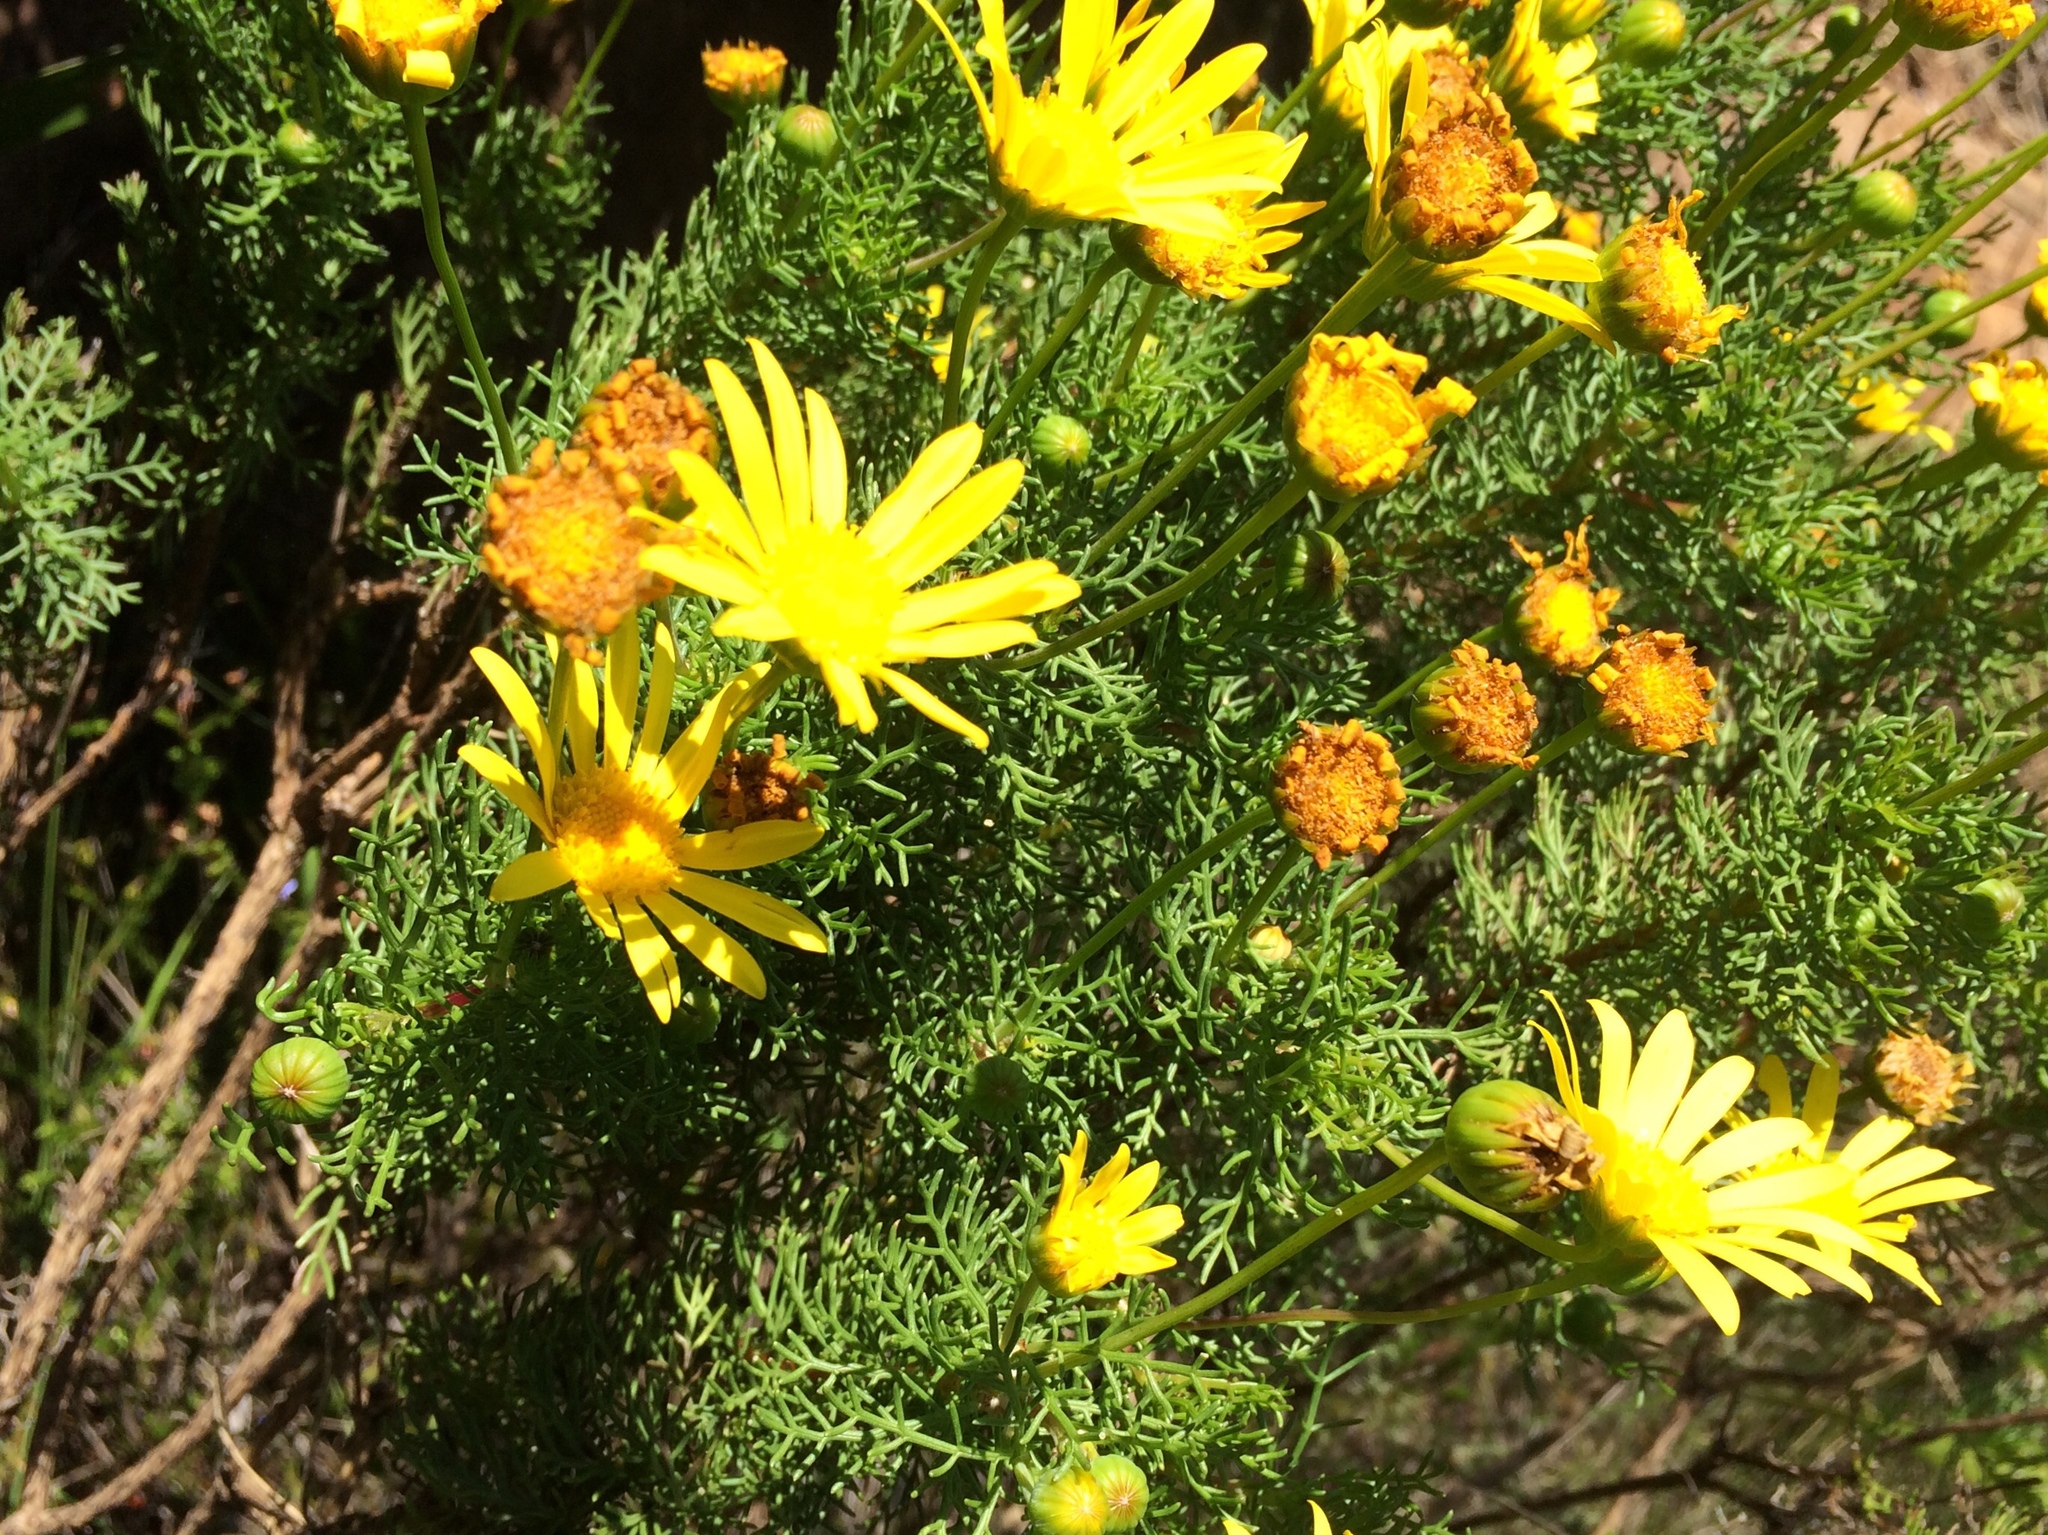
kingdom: Plantae
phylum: Tracheophyta
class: Magnoliopsida
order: Asterales
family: Asteraceae
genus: Euryops
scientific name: Euryops abrotanifolius
